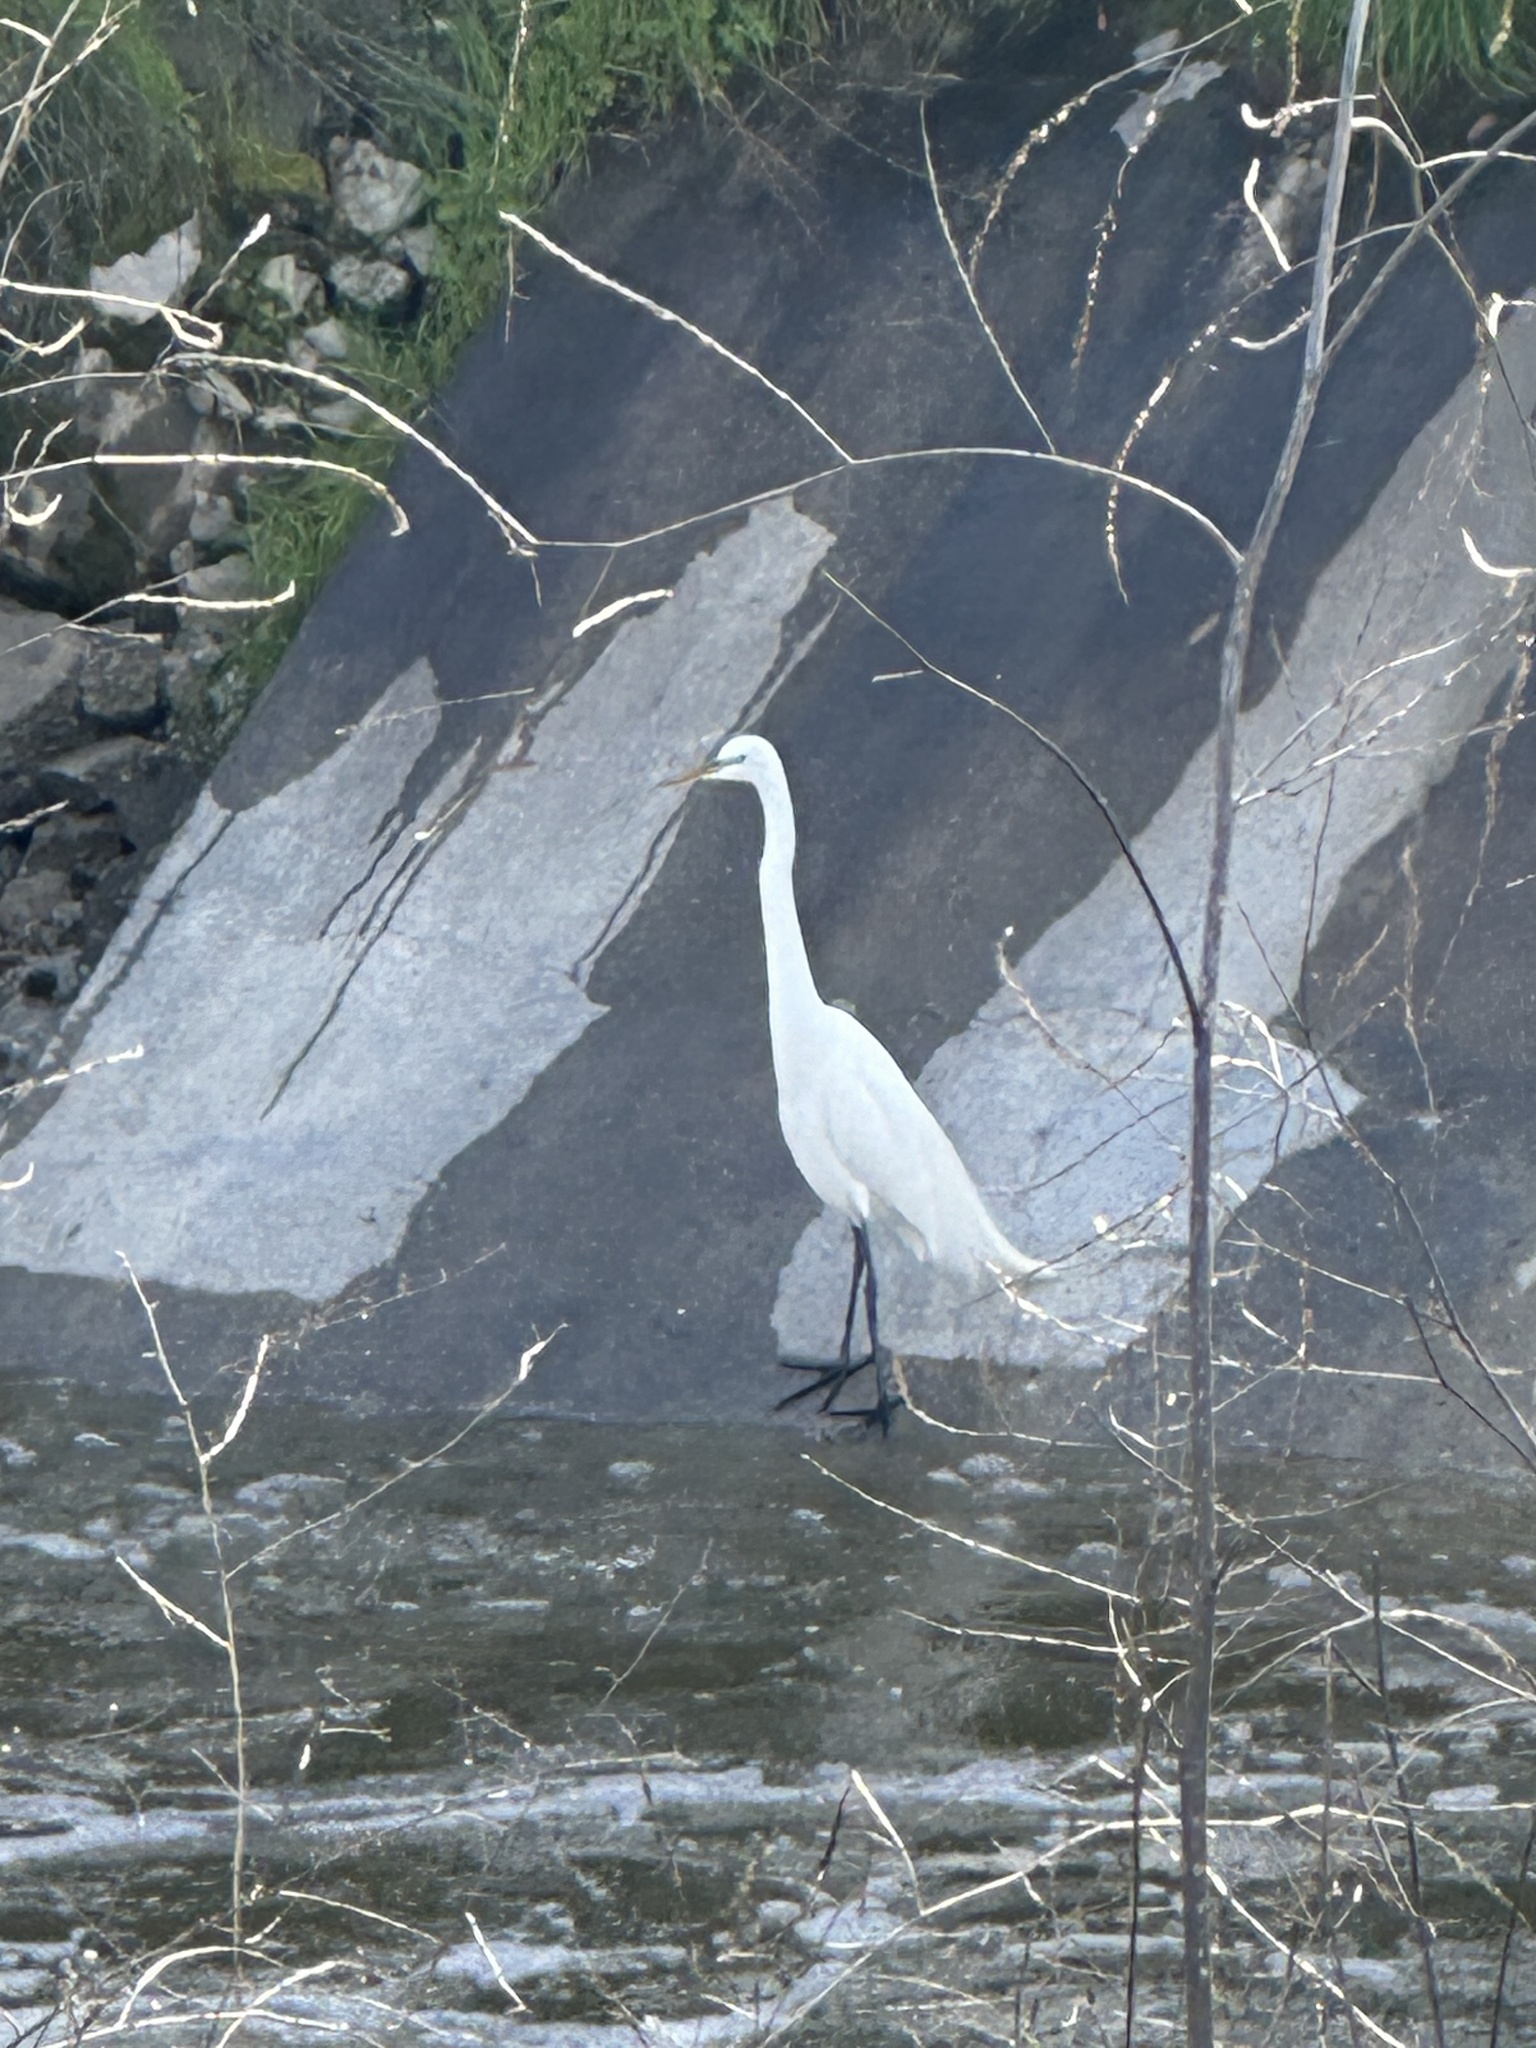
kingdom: Animalia
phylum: Chordata
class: Aves
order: Pelecaniformes
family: Ardeidae
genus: Ardea
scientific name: Ardea alba
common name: Great egret
